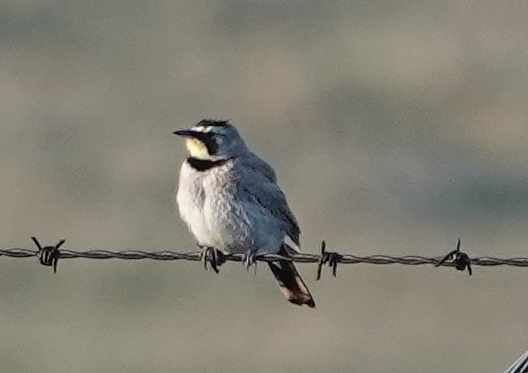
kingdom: Animalia
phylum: Chordata
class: Aves
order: Passeriformes
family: Alaudidae
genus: Eremophila
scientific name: Eremophila alpestris
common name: Horned lark
